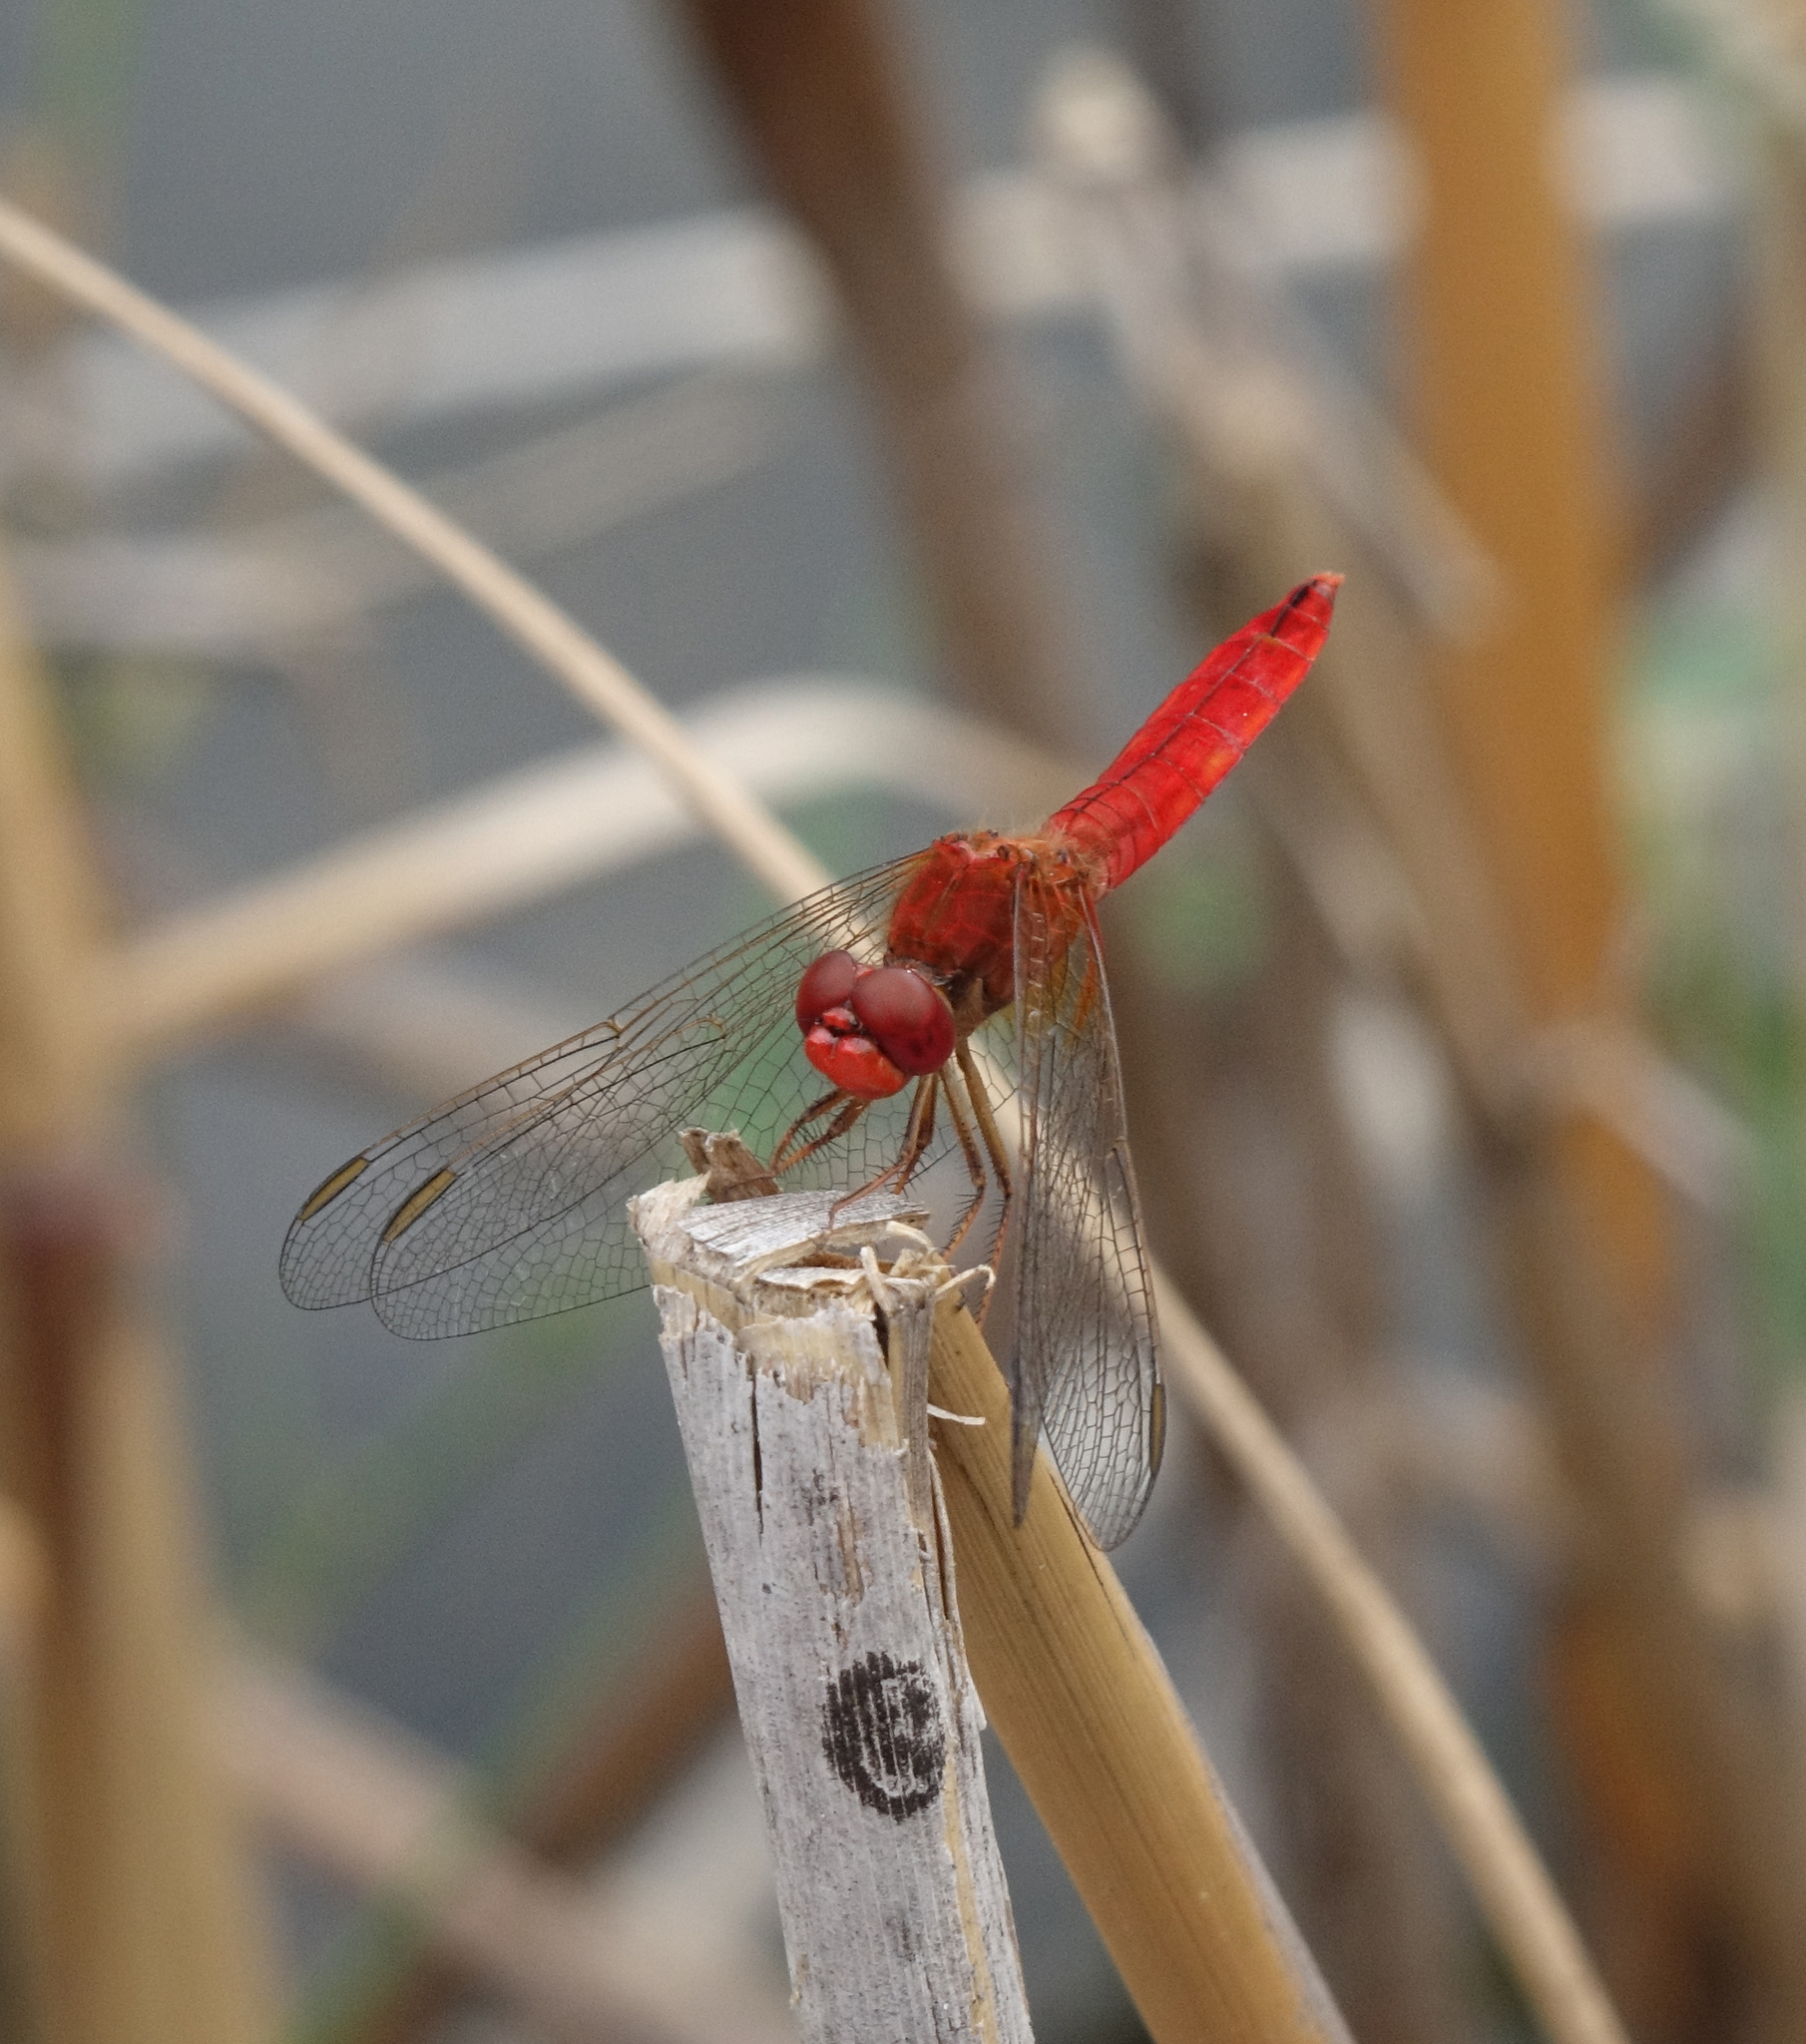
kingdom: Animalia
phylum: Arthropoda
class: Insecta
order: Odonata
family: Libellulidae
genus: Crocothemis
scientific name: Crocothemis erythraea
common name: Scarlet dragonfly
